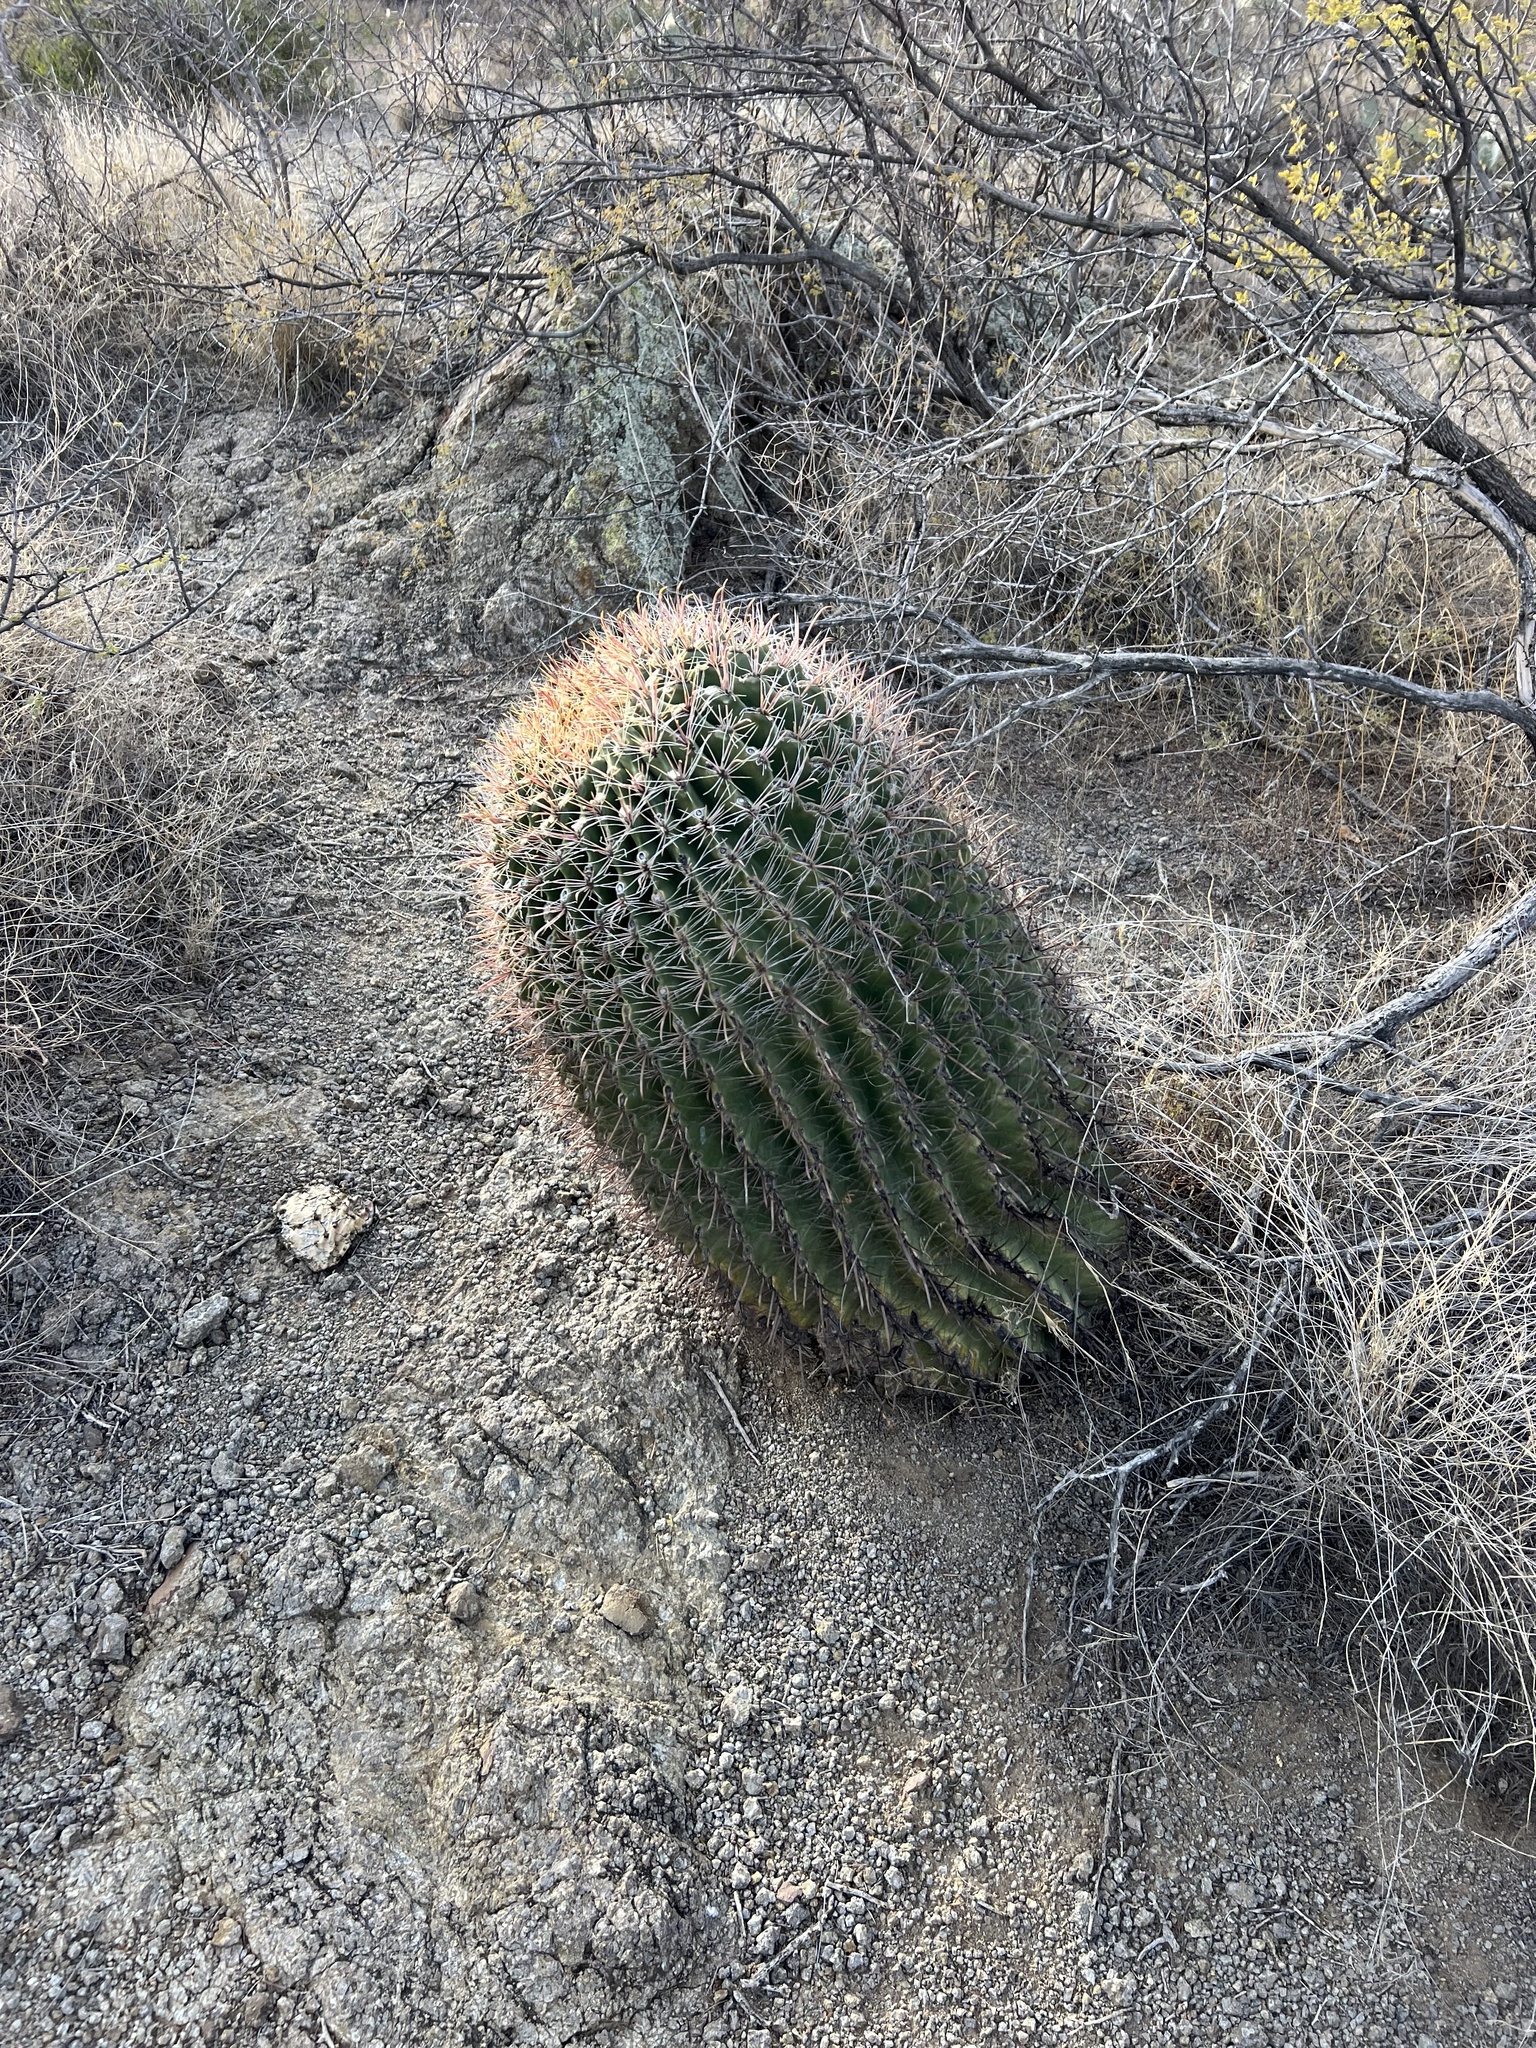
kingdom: Plantae
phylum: Tracheophyta
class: Magnoliopsida
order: Caryophyllales
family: Cactaceae
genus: Ferocactus
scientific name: Ferocactus wislizeni
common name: Candy barrel cactus
